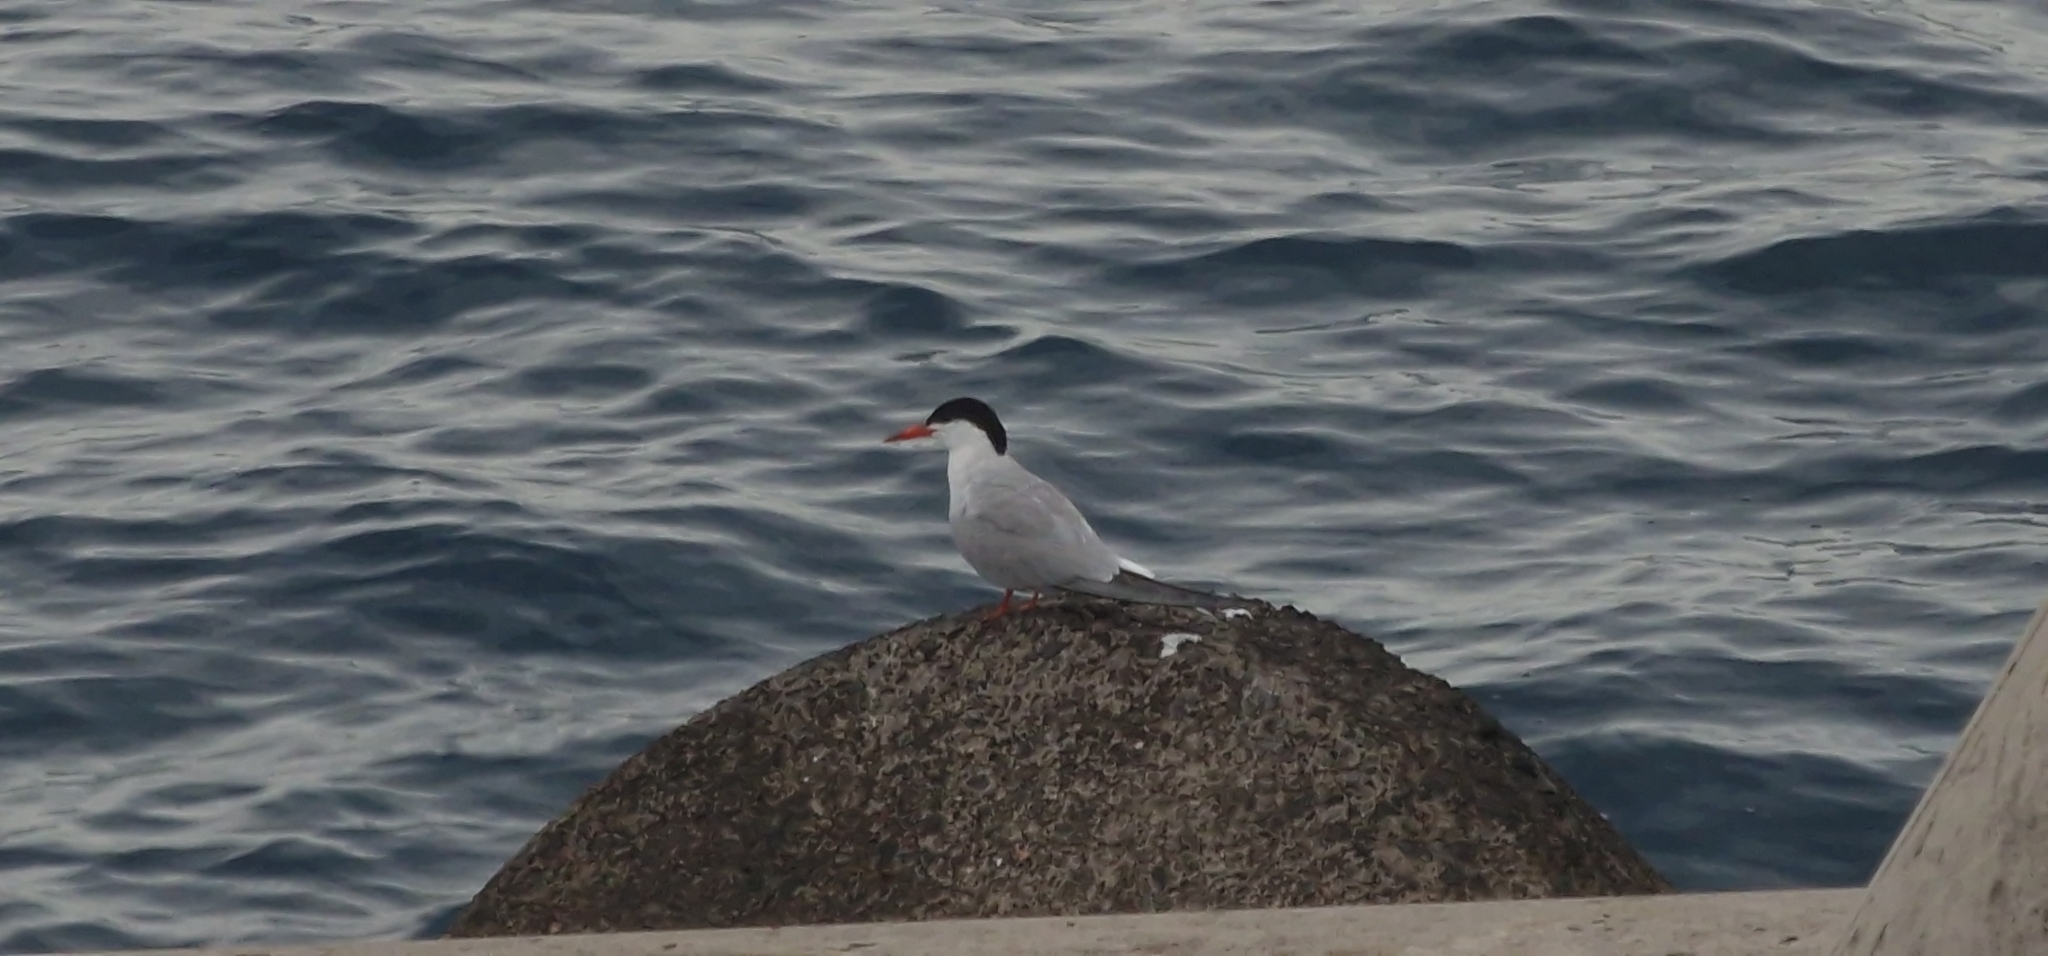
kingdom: Animalia
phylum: Chordata
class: Aves
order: Charadriiformes
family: Laridae
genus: Sterna
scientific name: Sterna hirundo
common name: Common tern
